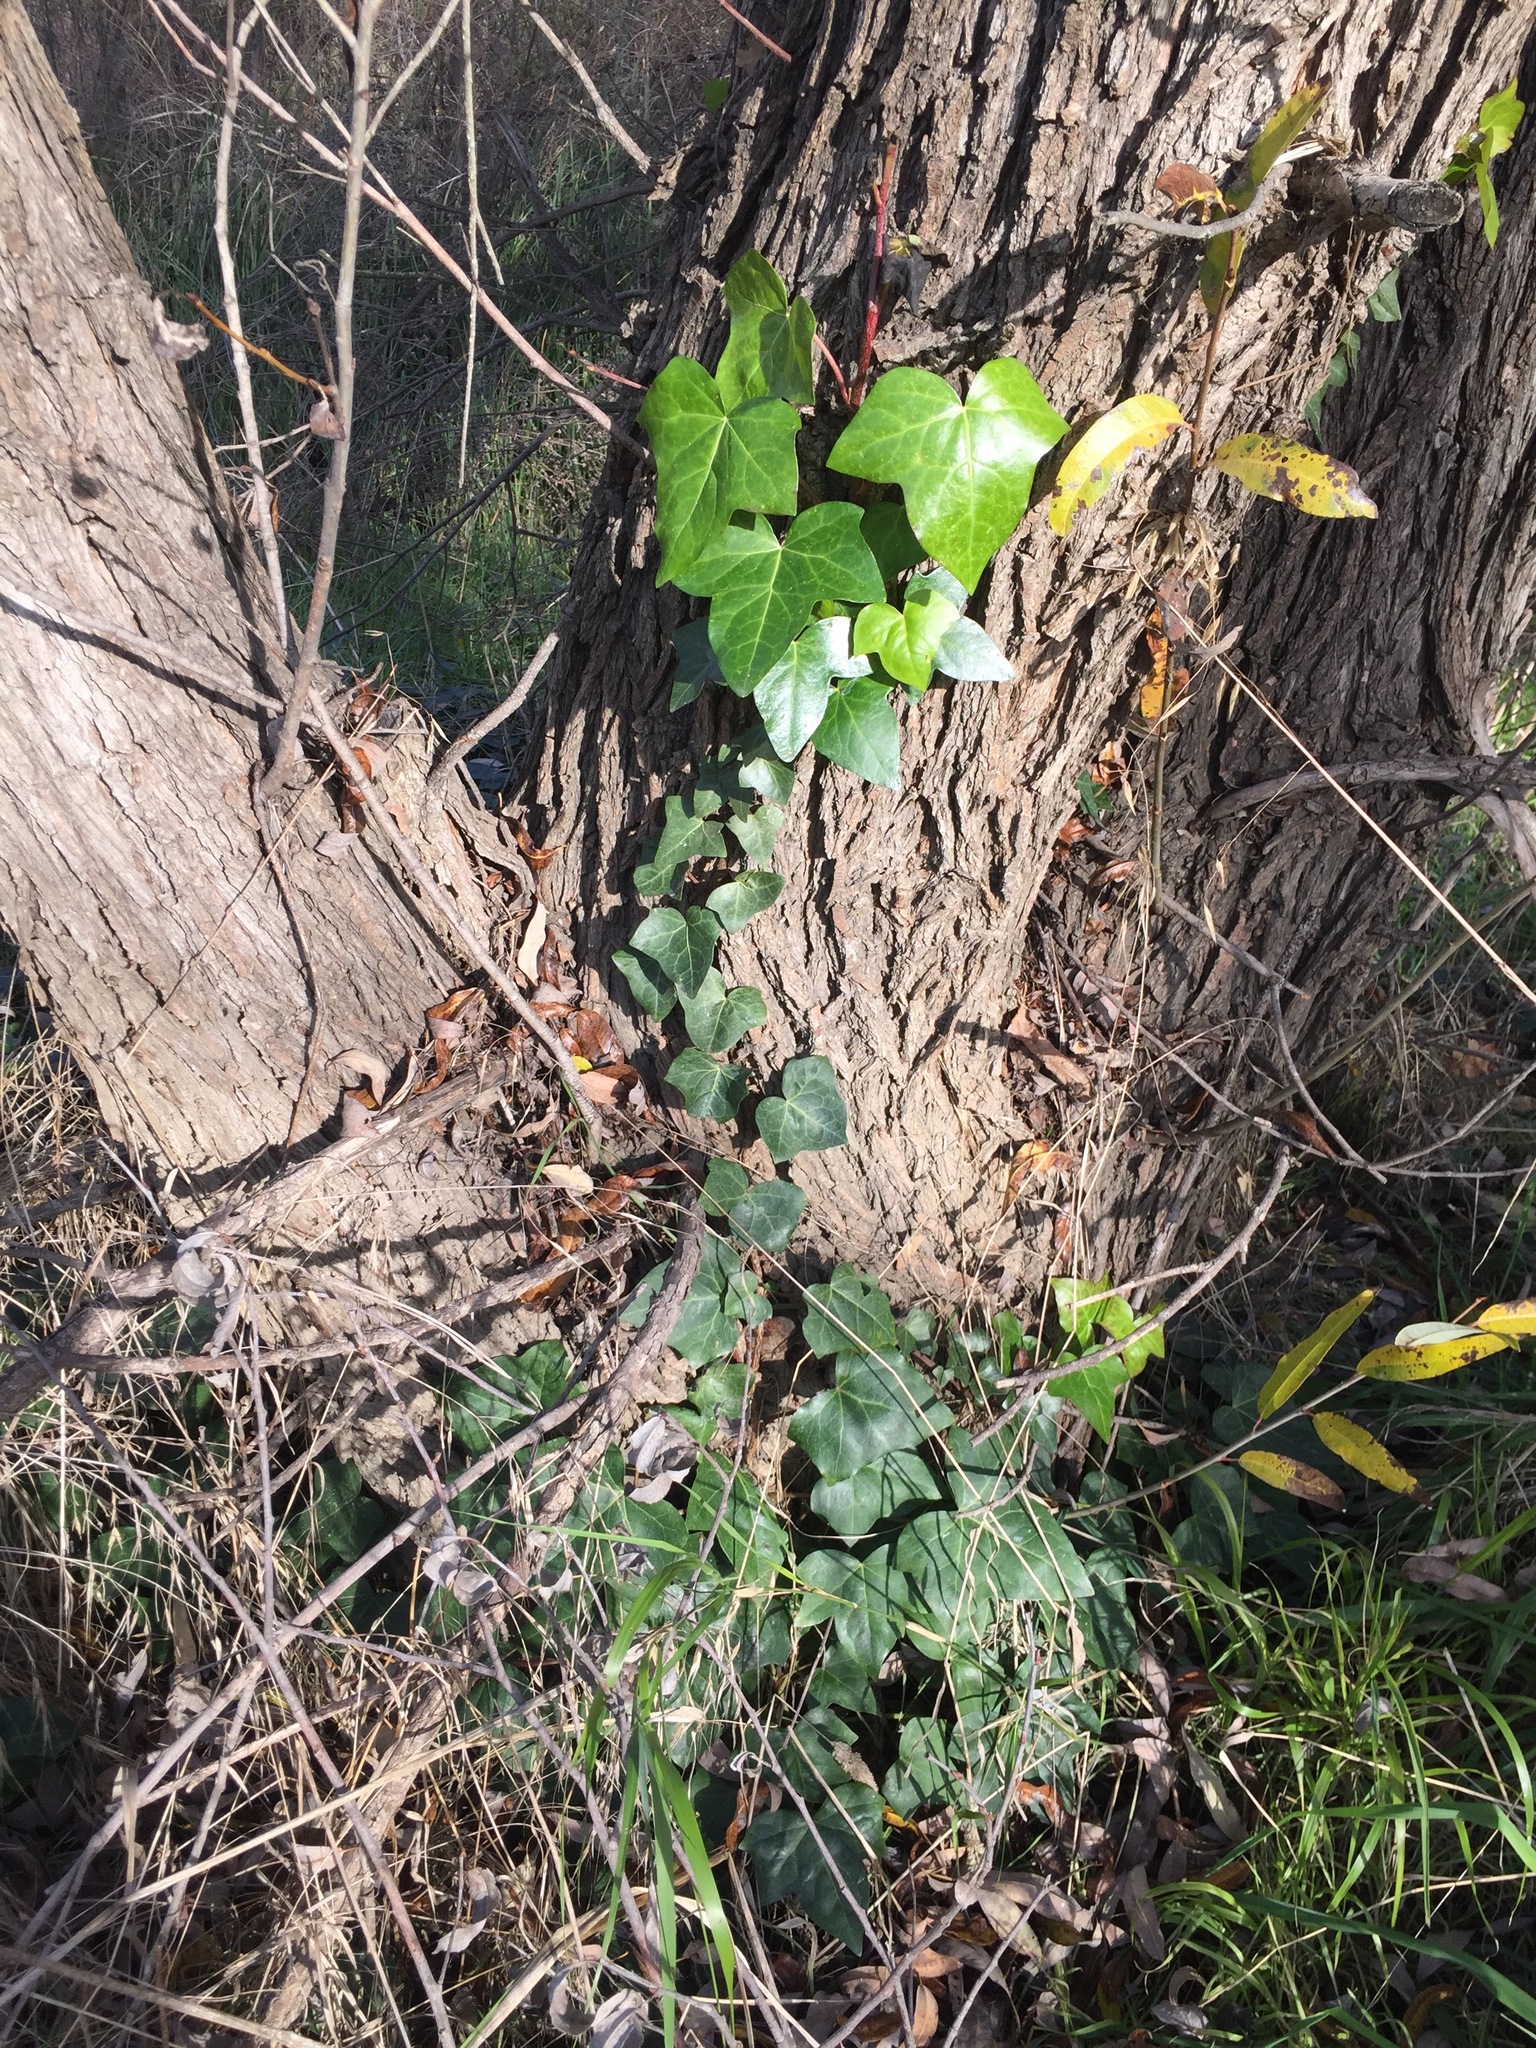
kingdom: Plantae
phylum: Tracheophyta
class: Magnoliopsida
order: Apiales
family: Araliaceae
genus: Hedera
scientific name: Hedera helix
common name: Ivy
